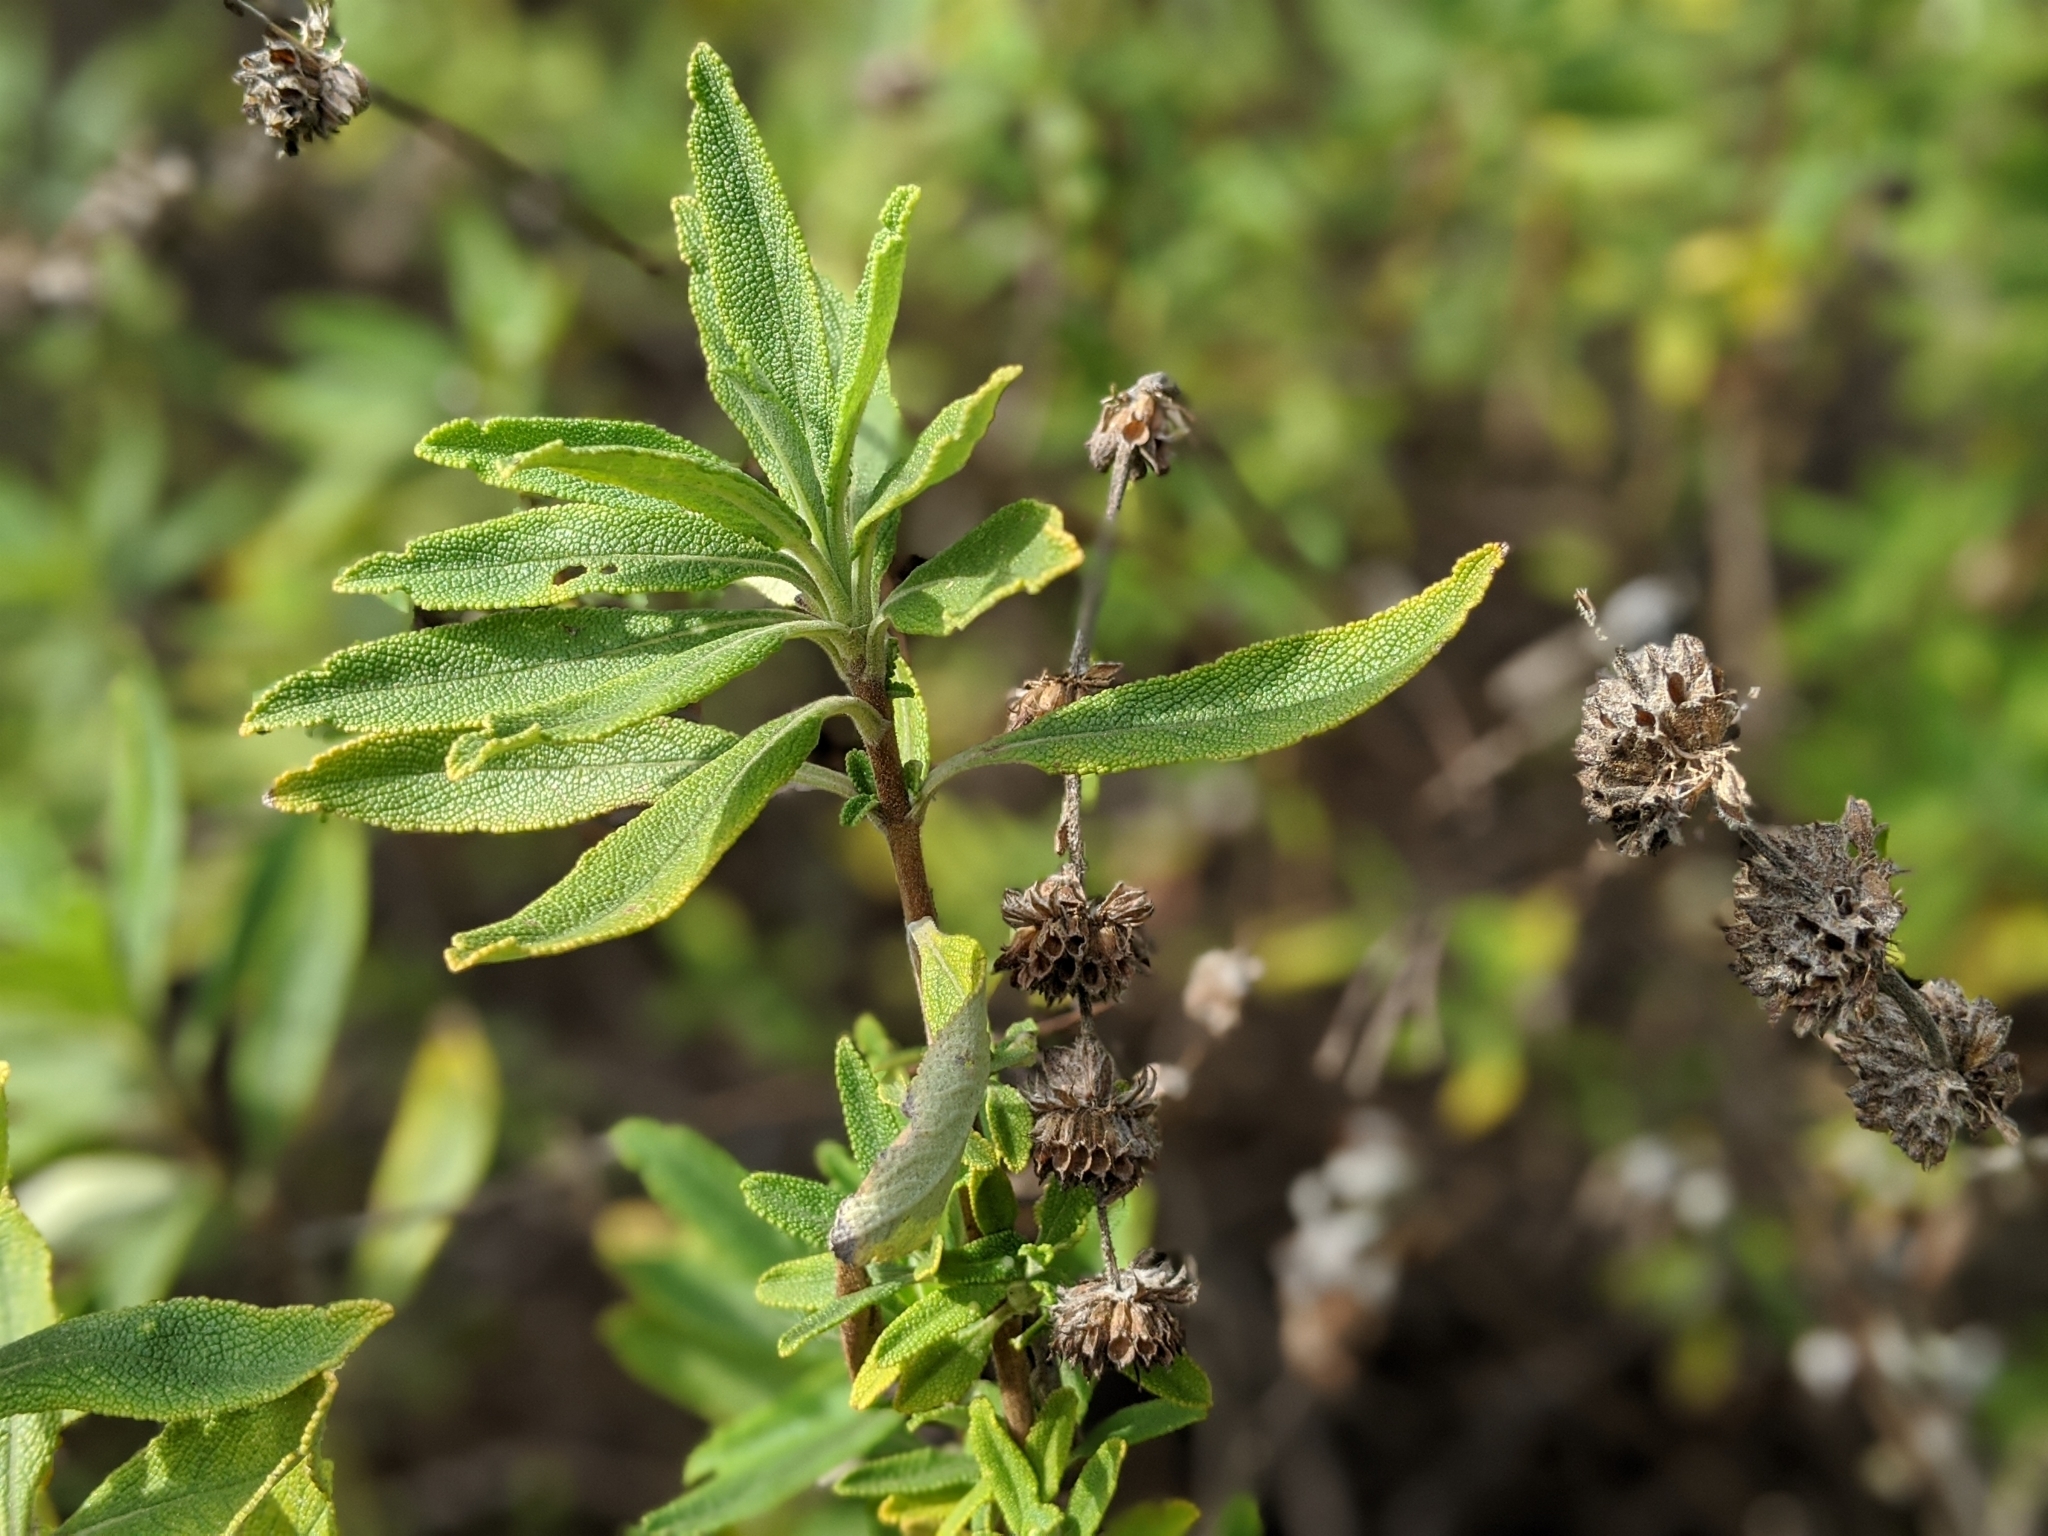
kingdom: Plantae
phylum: Tracheophyta
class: Magnoliopsida
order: Lamiales
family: Lamiaceae
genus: Salvia
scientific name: Salvia mellifera
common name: Black sage
